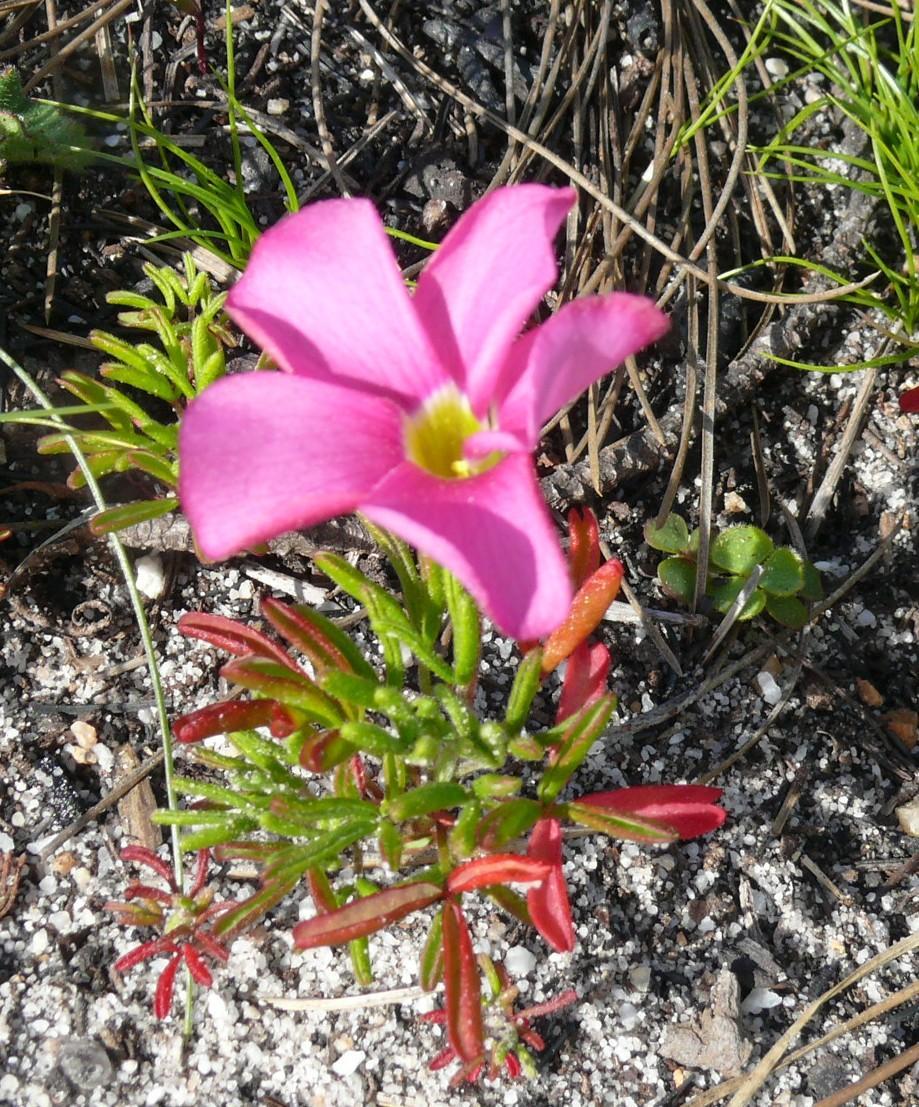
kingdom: Plantae
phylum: Tracheophyta
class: Magnoliopsida
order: Oxalidales
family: Oxalidaceae
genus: Oxalis
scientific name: Oxalis glabra
